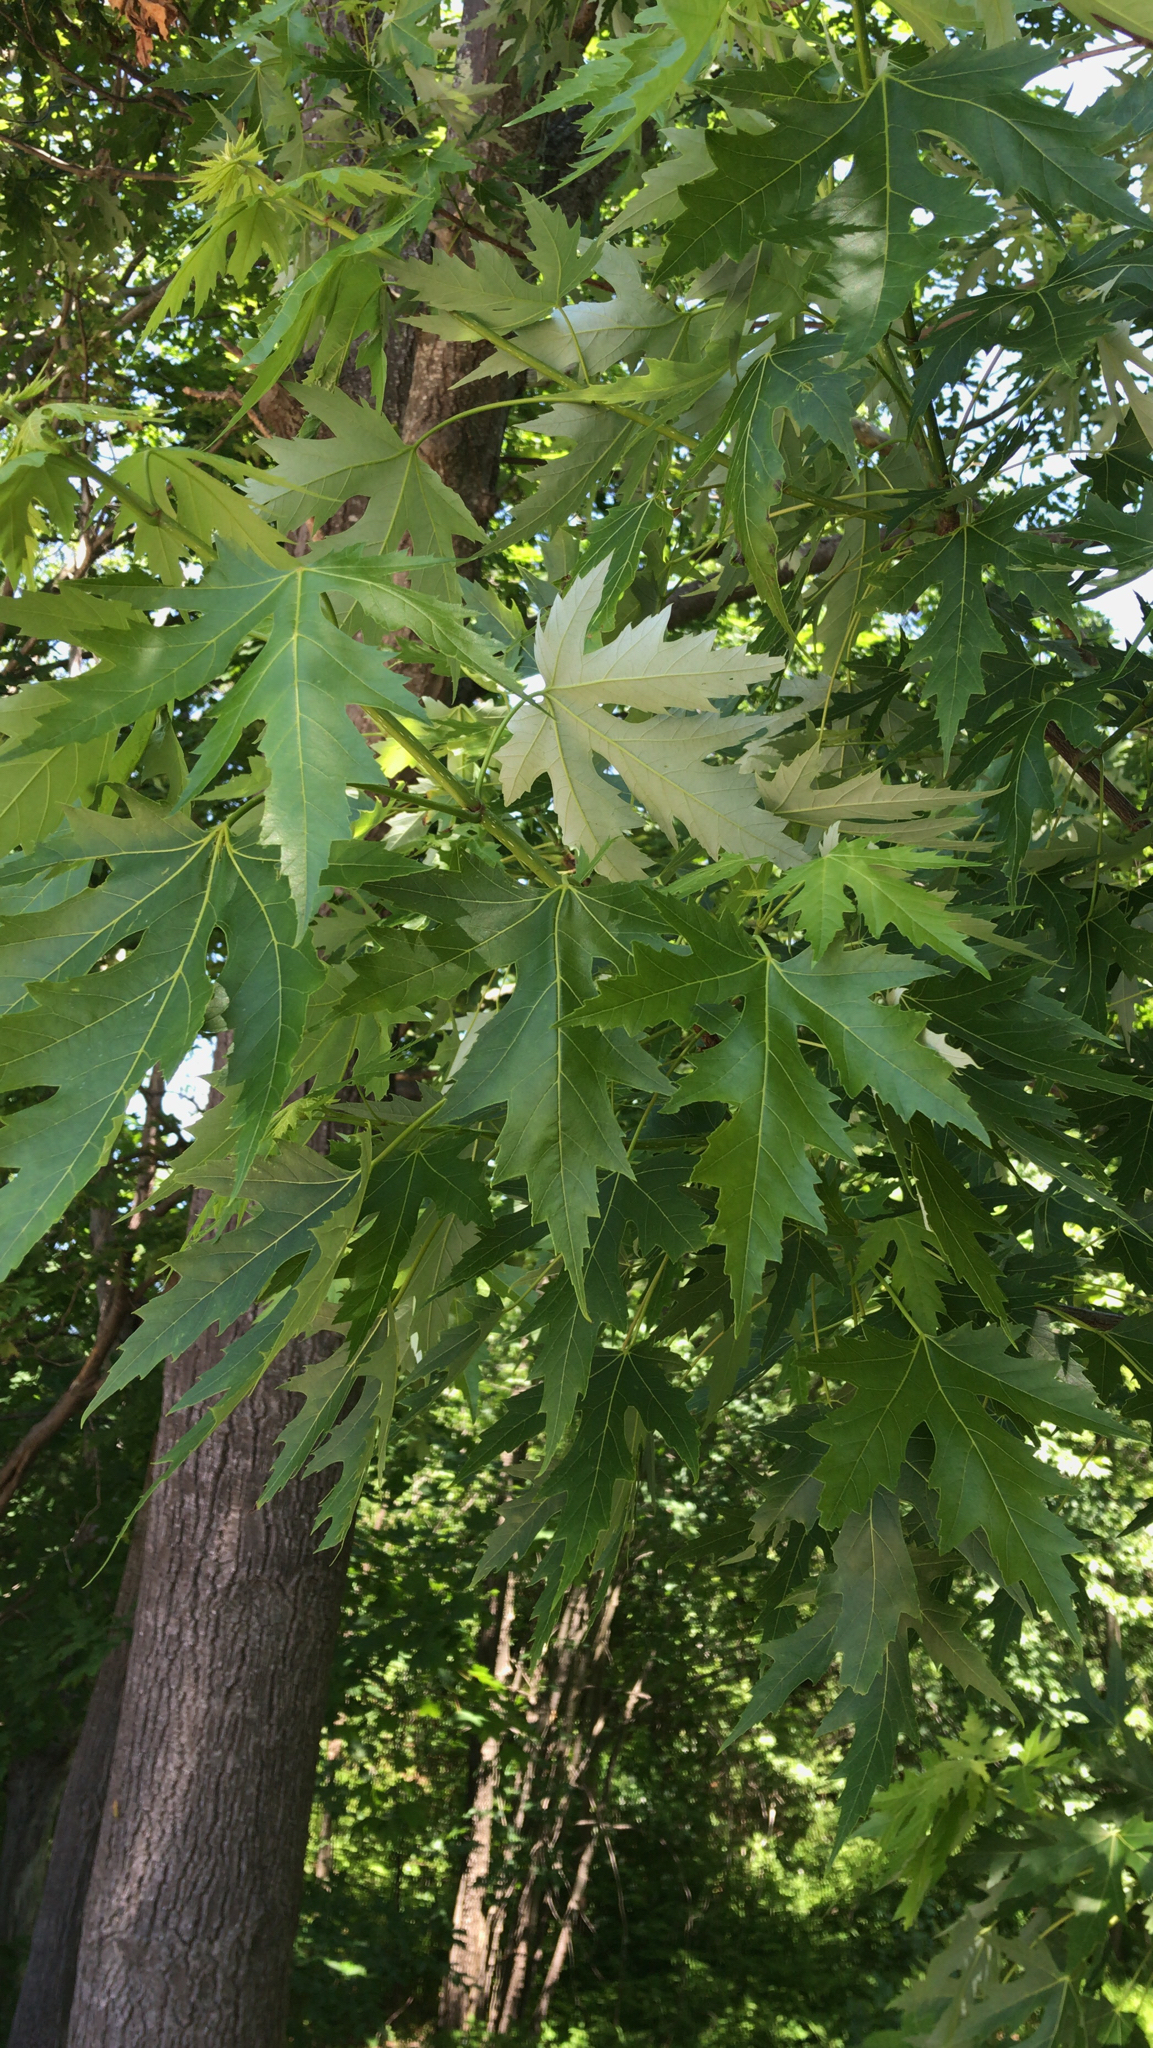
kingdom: Plantae
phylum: Tracheophyta
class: Magnoliopsida
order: Sapindales
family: Sapindaceae
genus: Acer
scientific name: Acer saccharinum
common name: Silver maple
